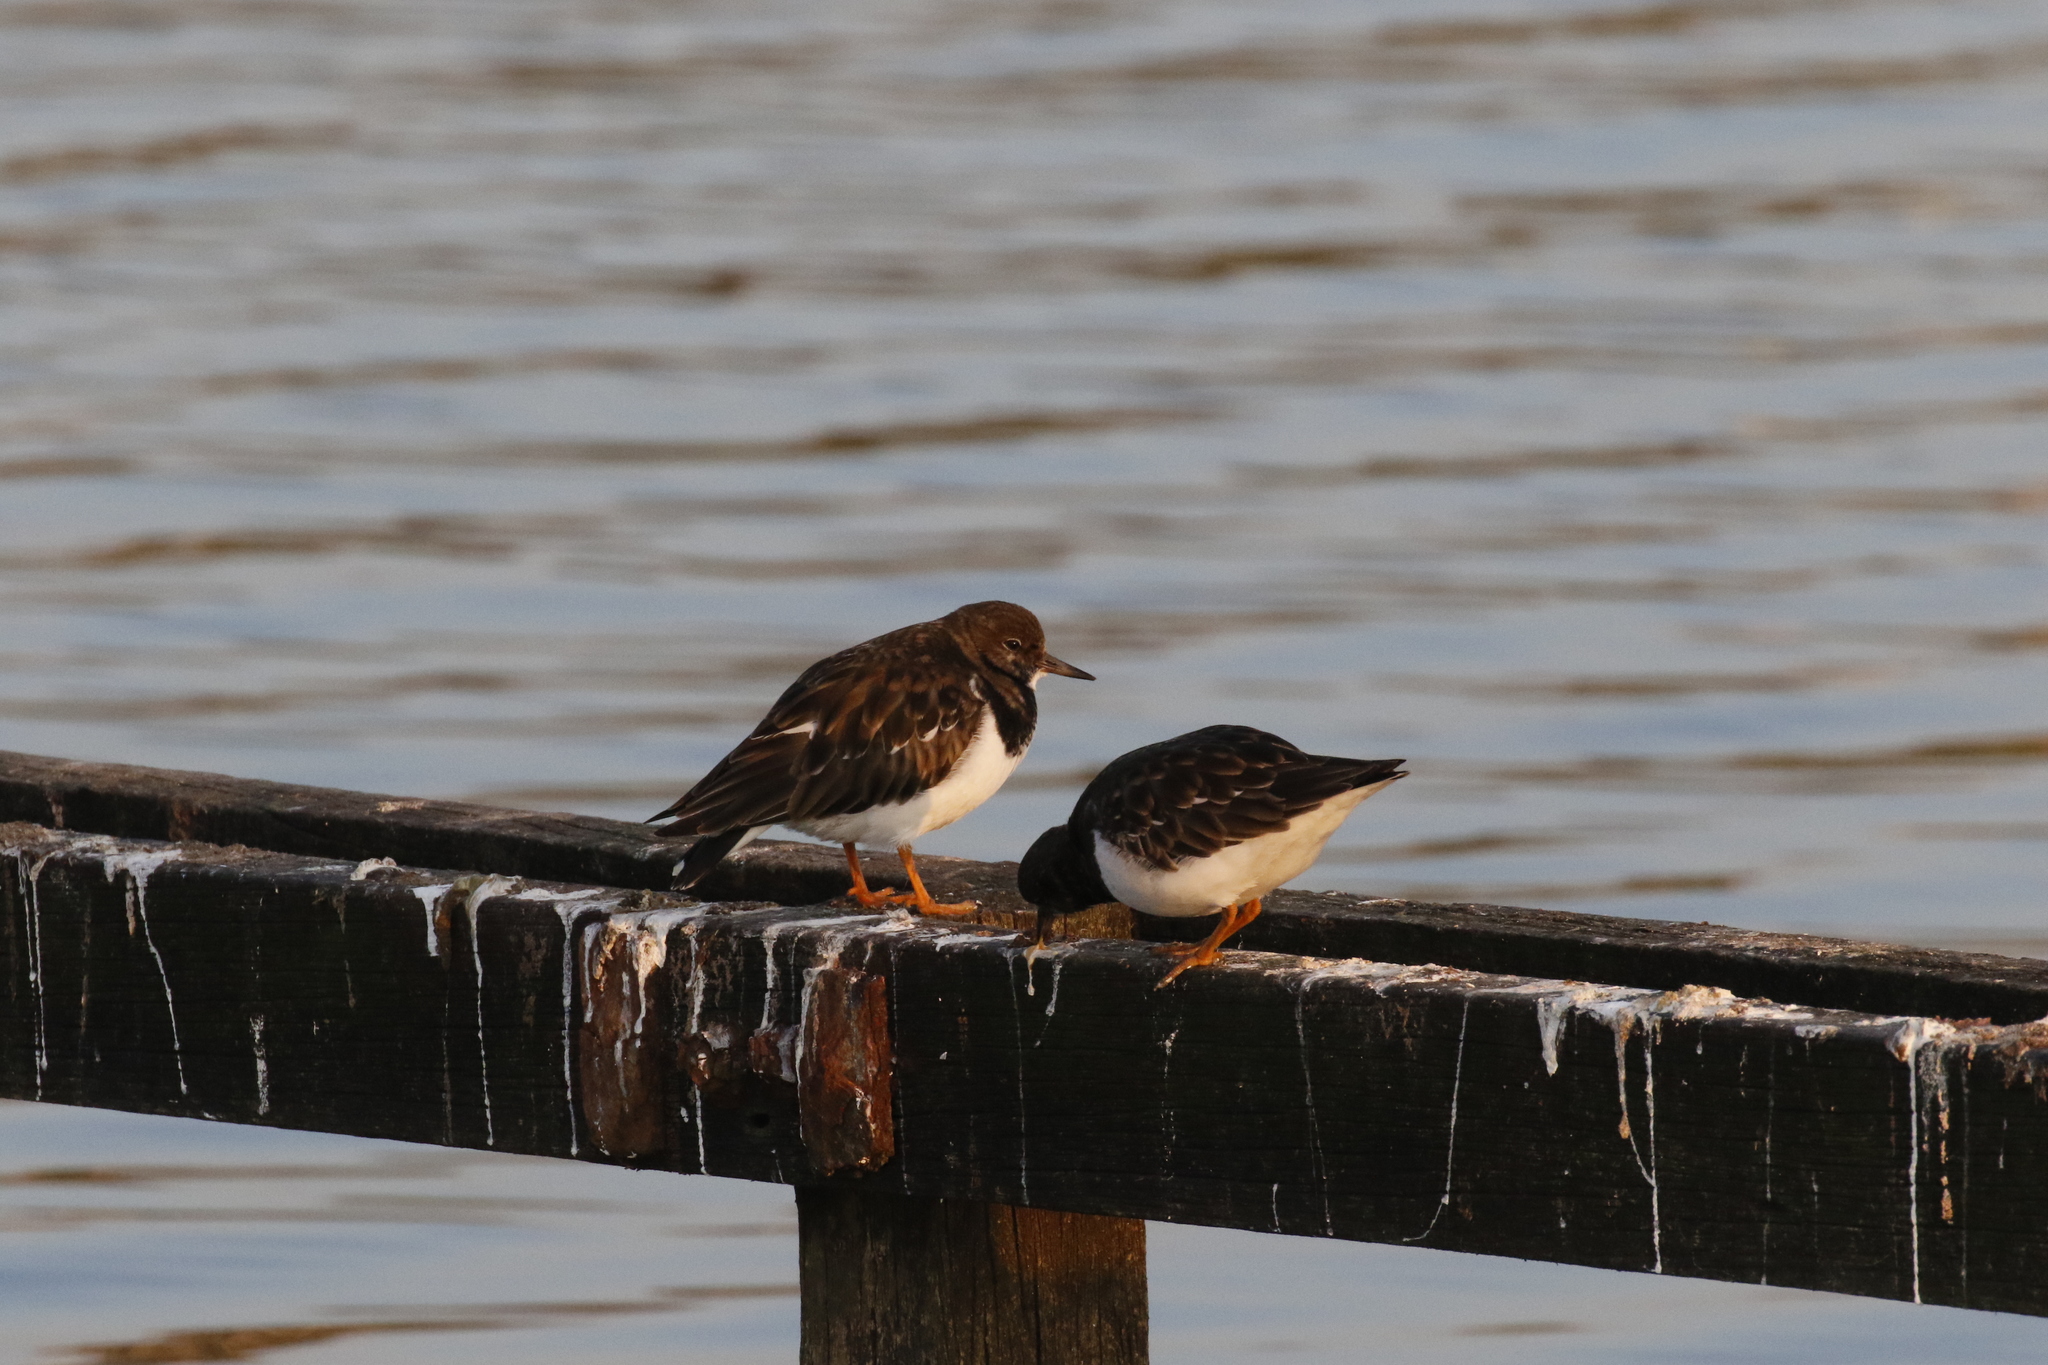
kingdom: Animalia
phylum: Chordata
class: Aves
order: Charadriiformes
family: Scolopacidae
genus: Arenaria
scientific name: Arenaria interpres
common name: Ruddy turnstone
